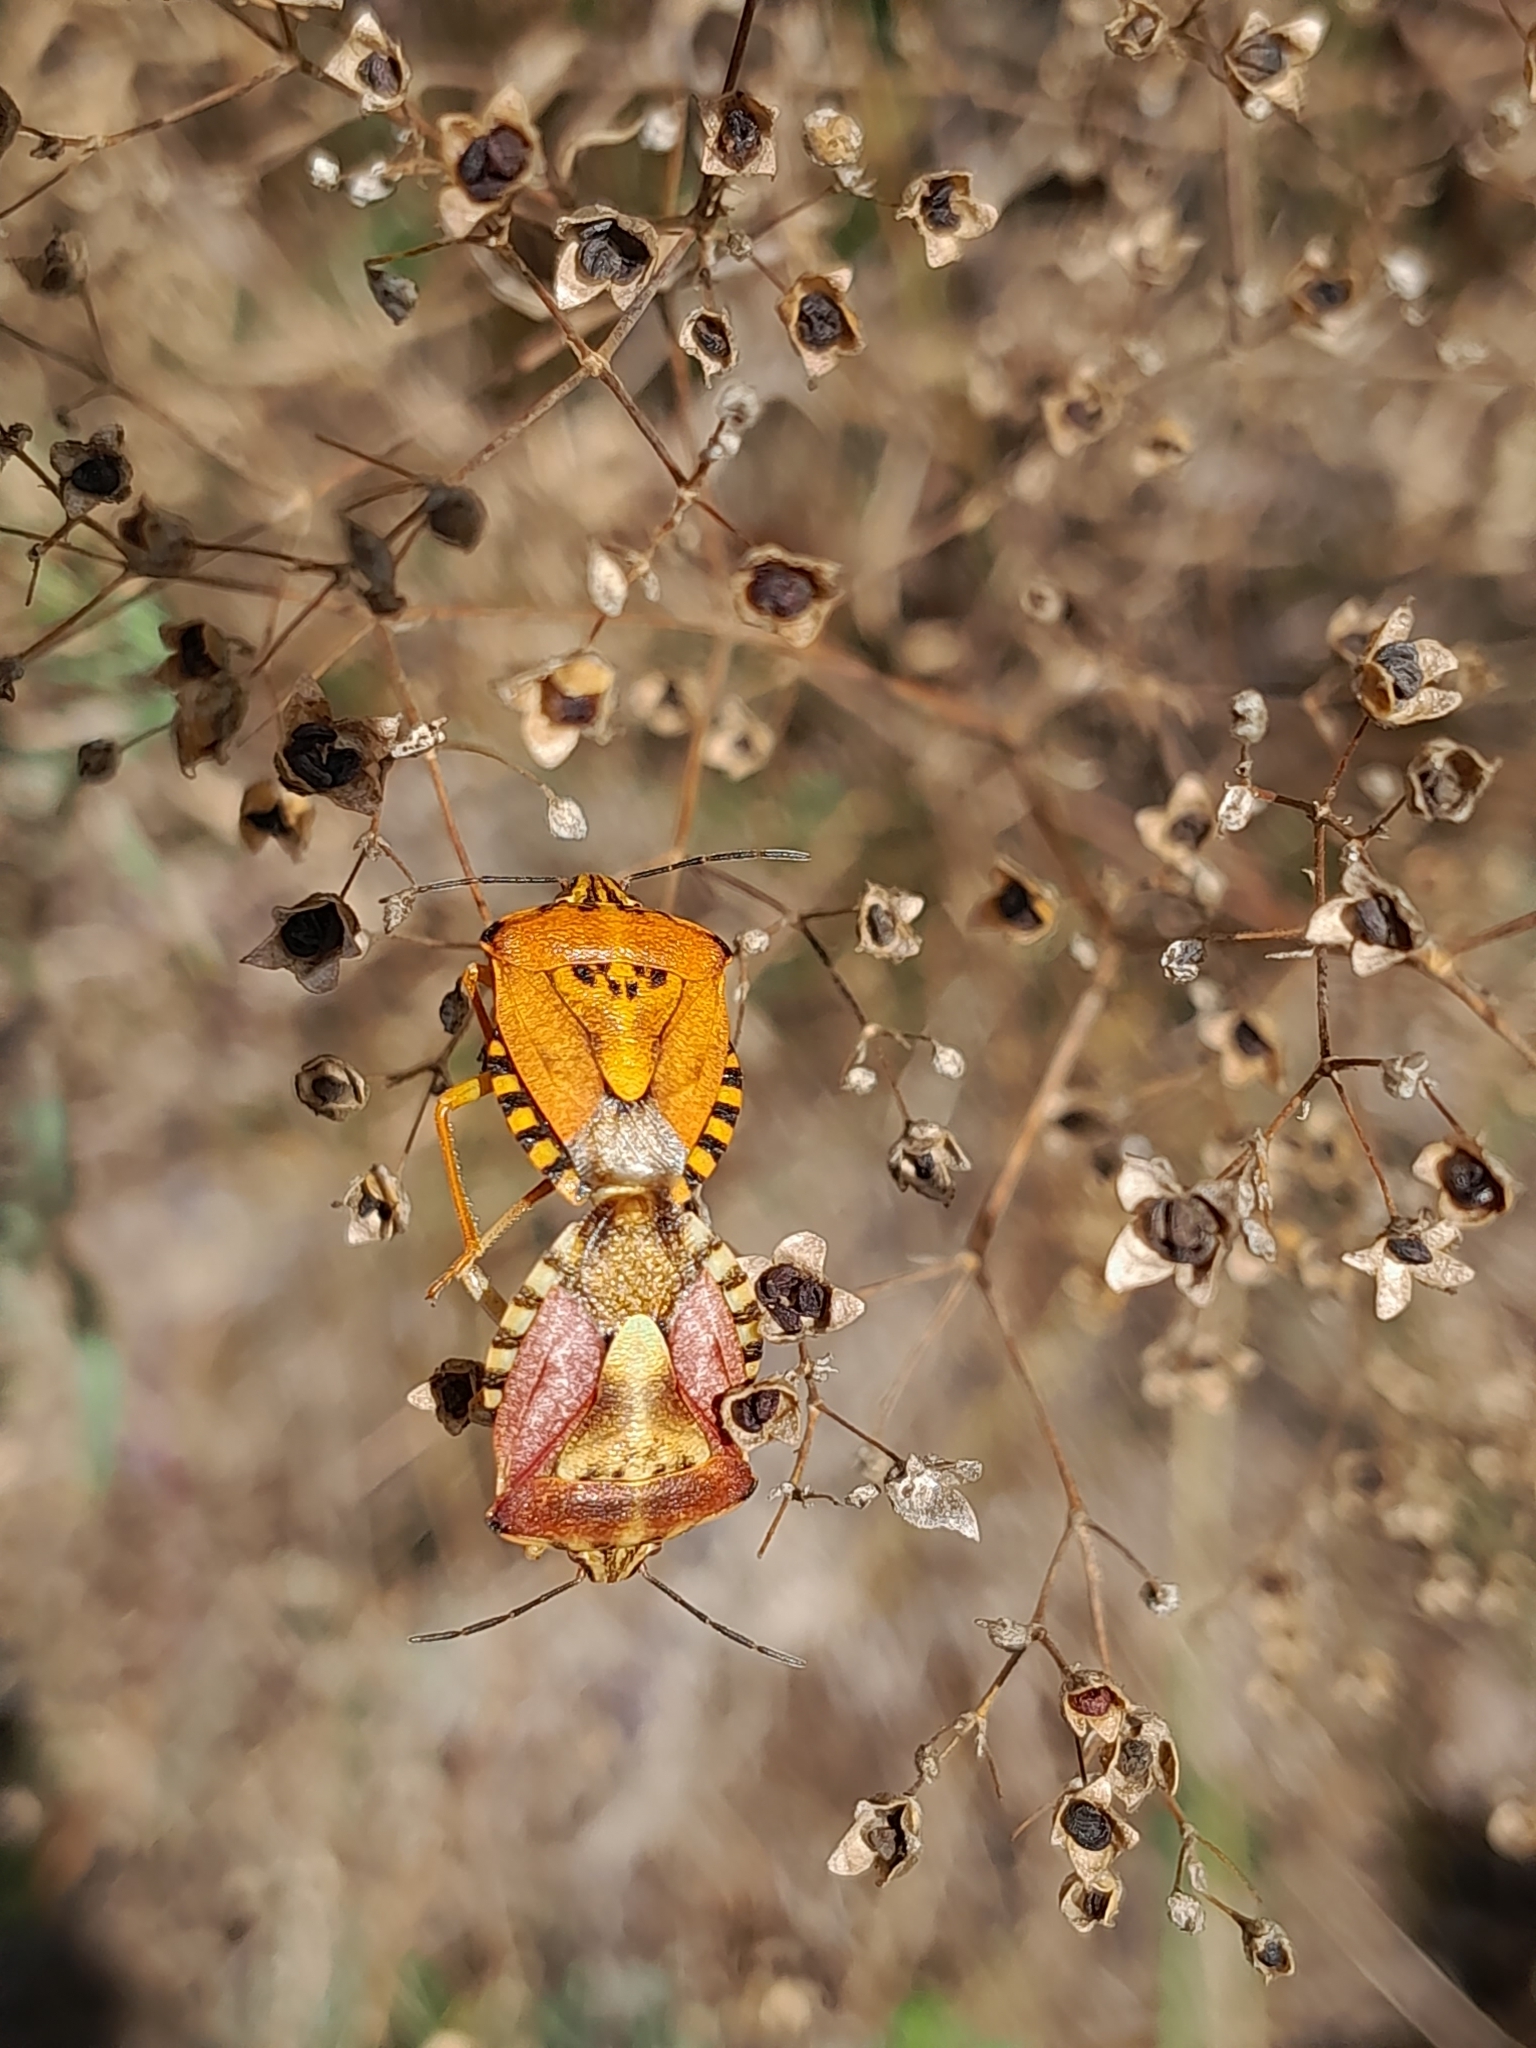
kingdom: Animalia
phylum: Arthropoda
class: Insecta
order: Hemiptera
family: Pentatomidae
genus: Carpocoris
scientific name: Carpocoris purpureipennis
